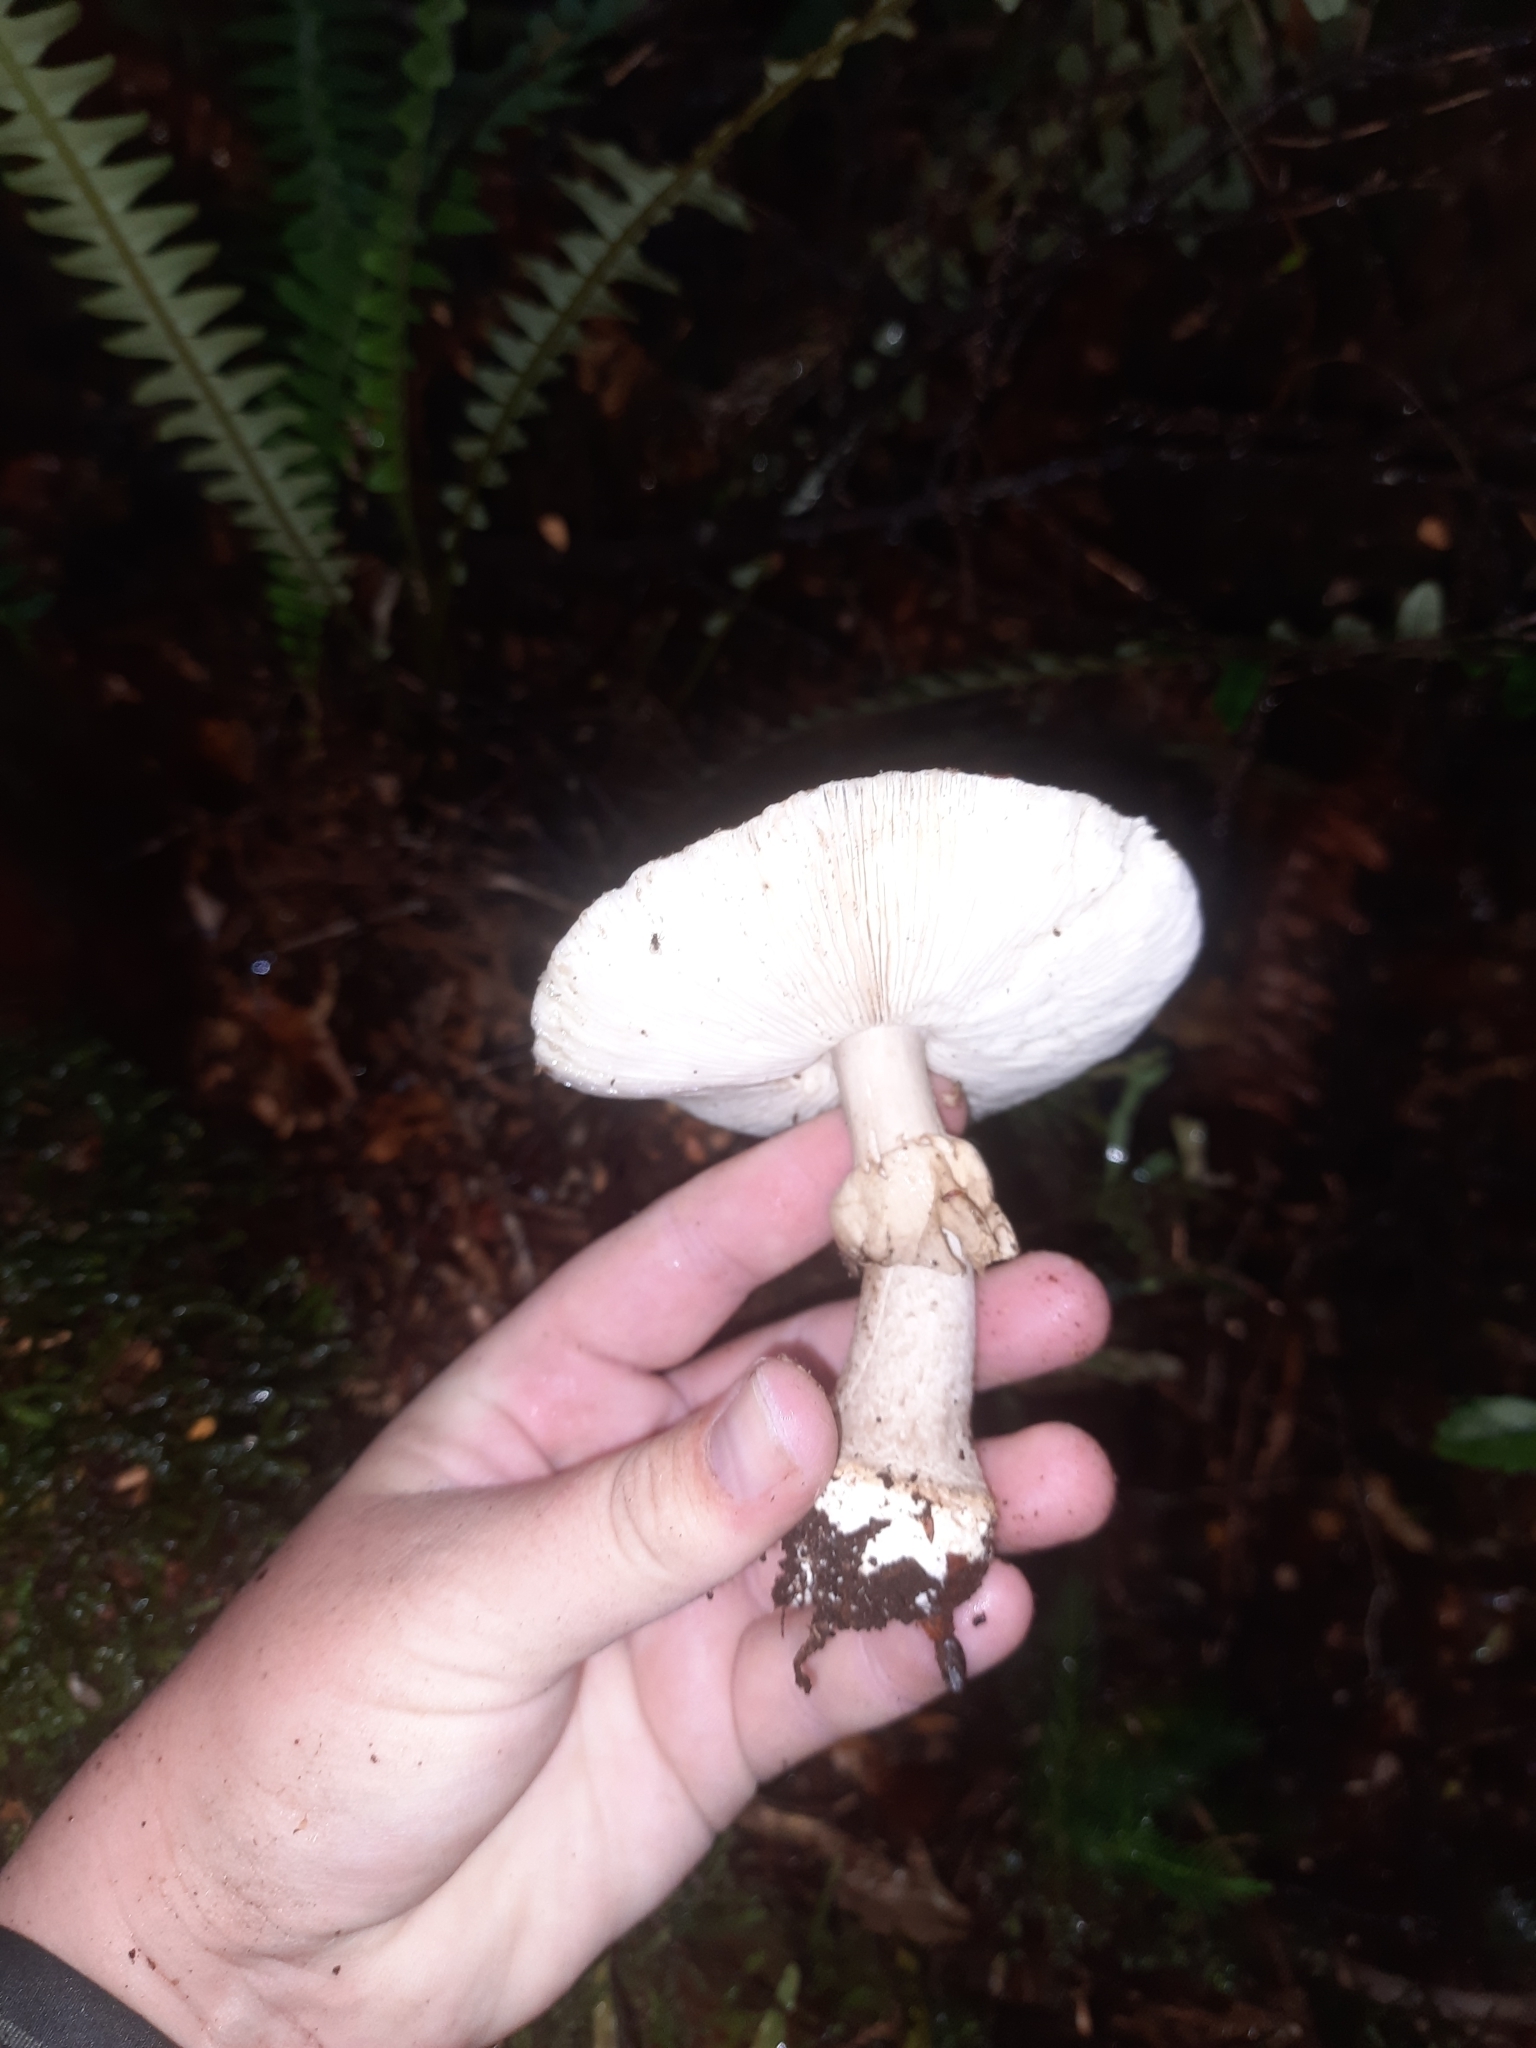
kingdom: Fungi
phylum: Basidiomycota
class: Agaricomycetes
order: Agaricales
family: Amanitaceae
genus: Amanita
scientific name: Amanita nothofagi
